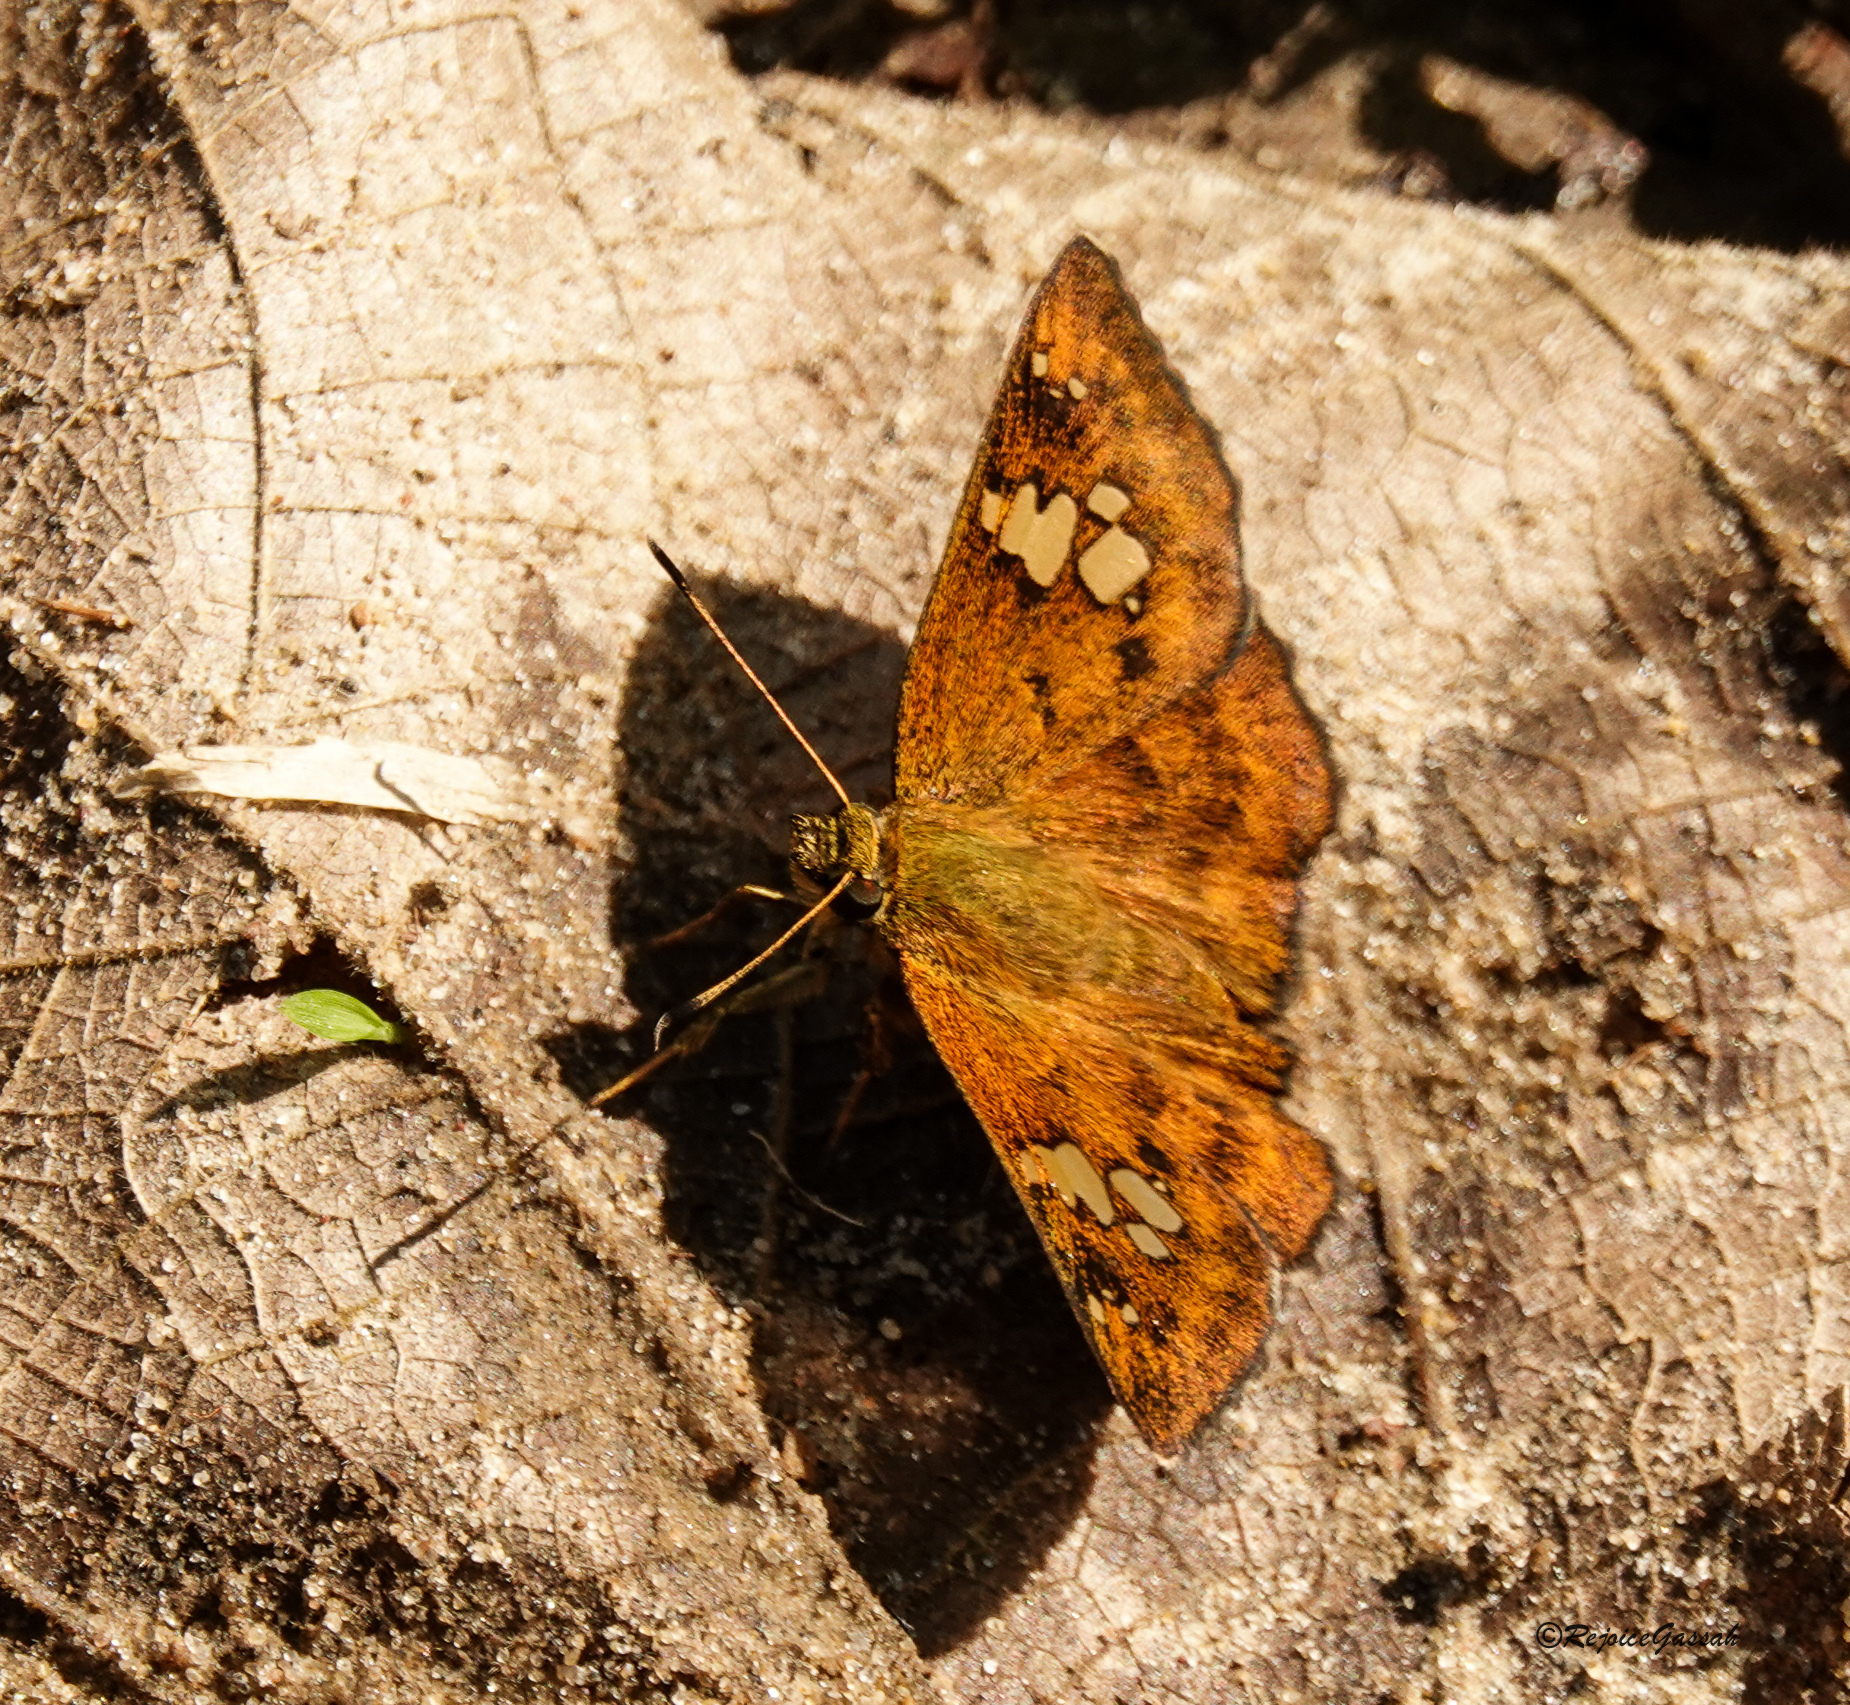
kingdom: Animalia
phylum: Arthropoda
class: Insecta
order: Lepidoptera
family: Hesperiidae
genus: Pseudocoladenia
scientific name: Pseudocoladenia dan
